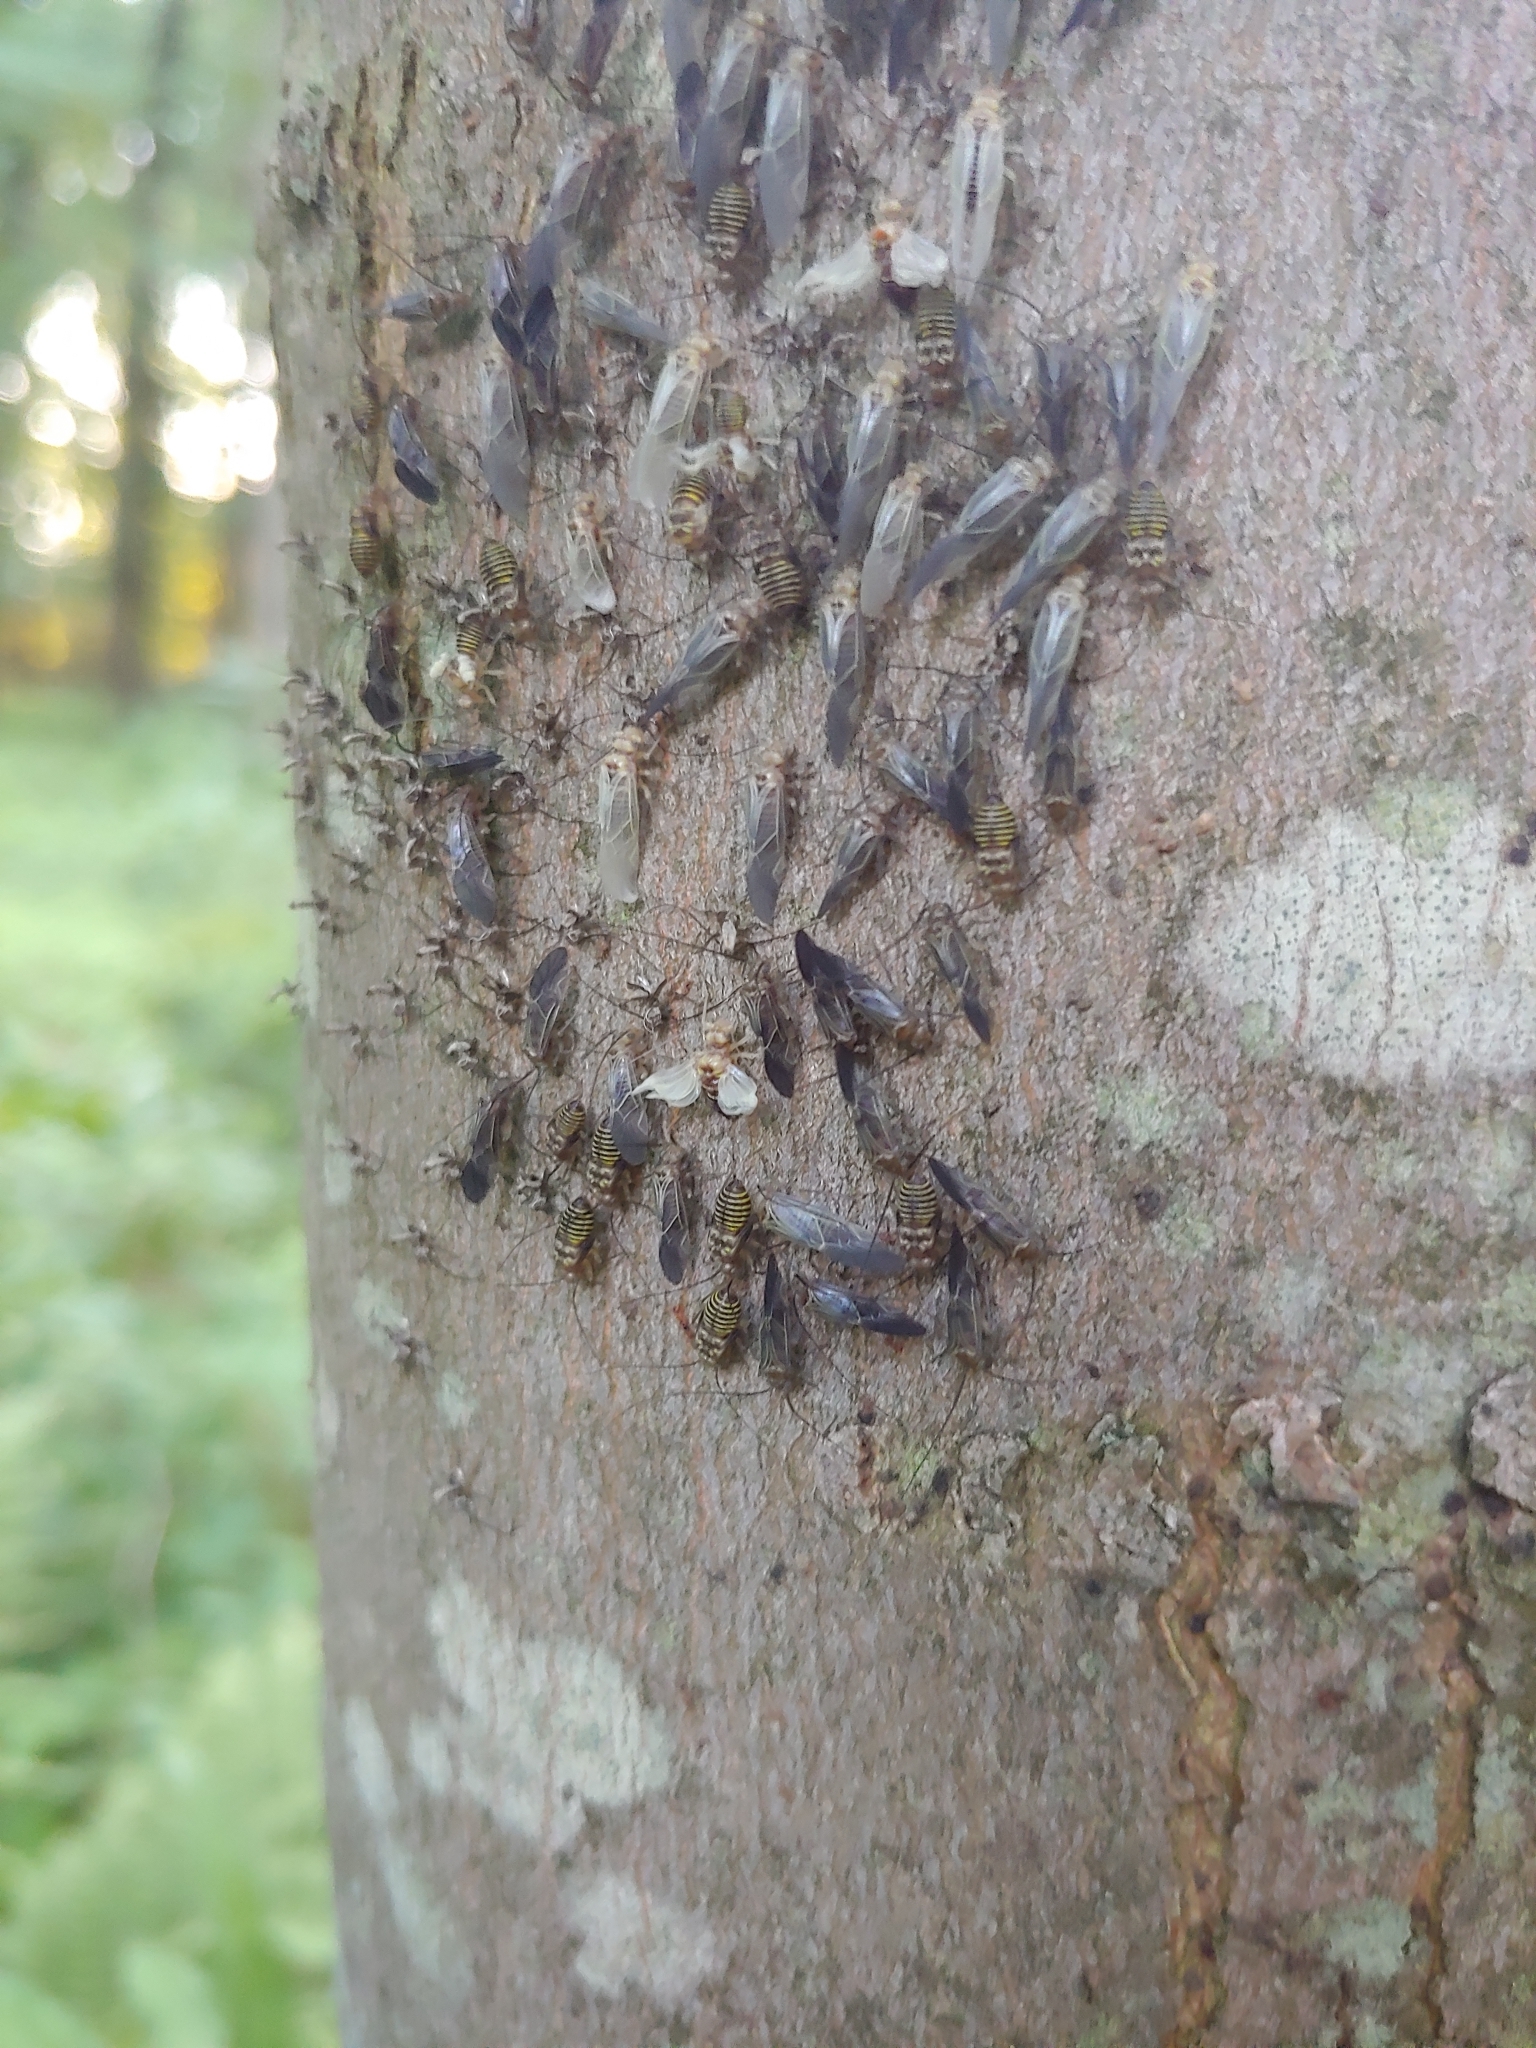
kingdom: Animalia
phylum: Arthropoda
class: Insecta
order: Psocodea
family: Psocidae
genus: Cerastipsocus
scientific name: Cerastipsocus venosus
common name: Tree cattle
